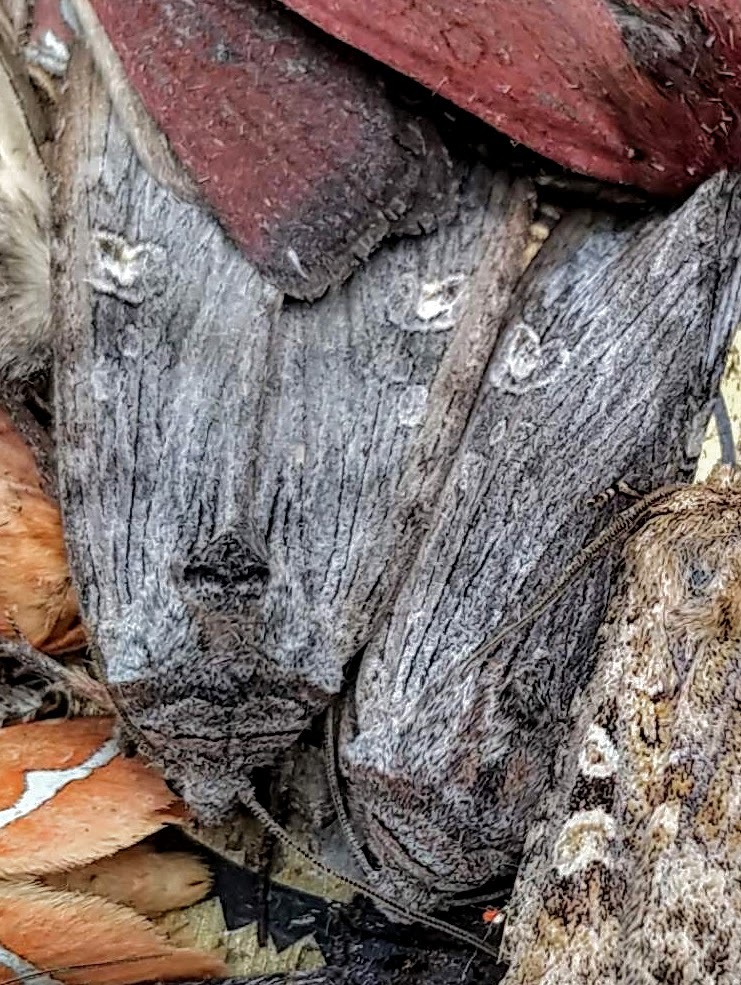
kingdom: Animalia
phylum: Arthropoda
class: Insecta
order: Lepidoptera
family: Noctuidae
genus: Xylena
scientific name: Xylena germana
